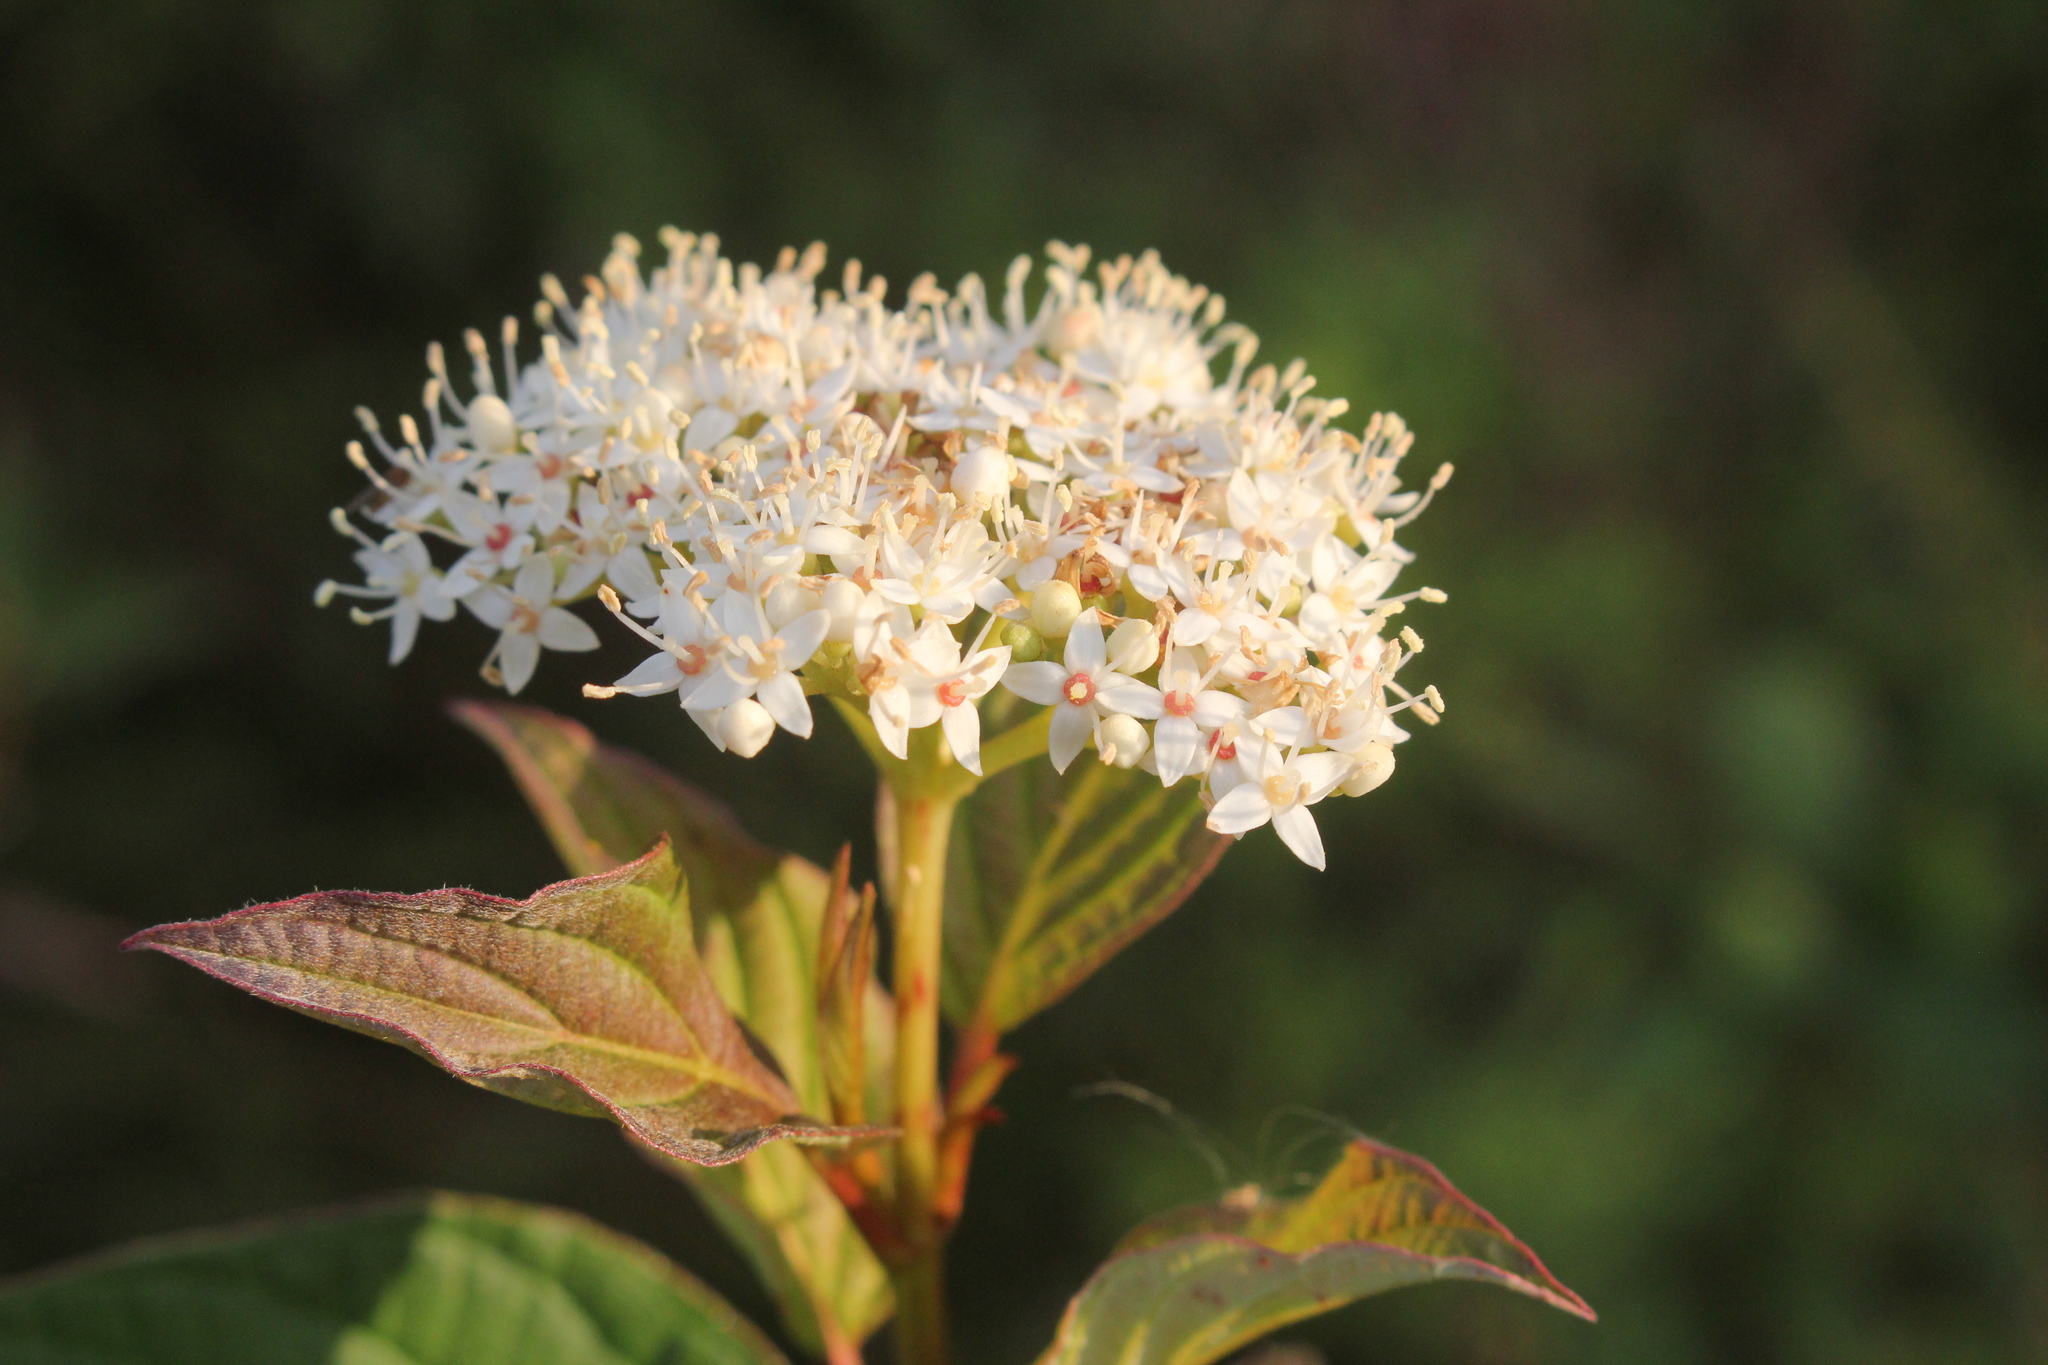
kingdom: Plantae
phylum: Tracheophyta
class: Magnoliopsida
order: Cornales
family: Cornaceae
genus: Cornus
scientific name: Cornus sericea
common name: Red-osier dogwood
